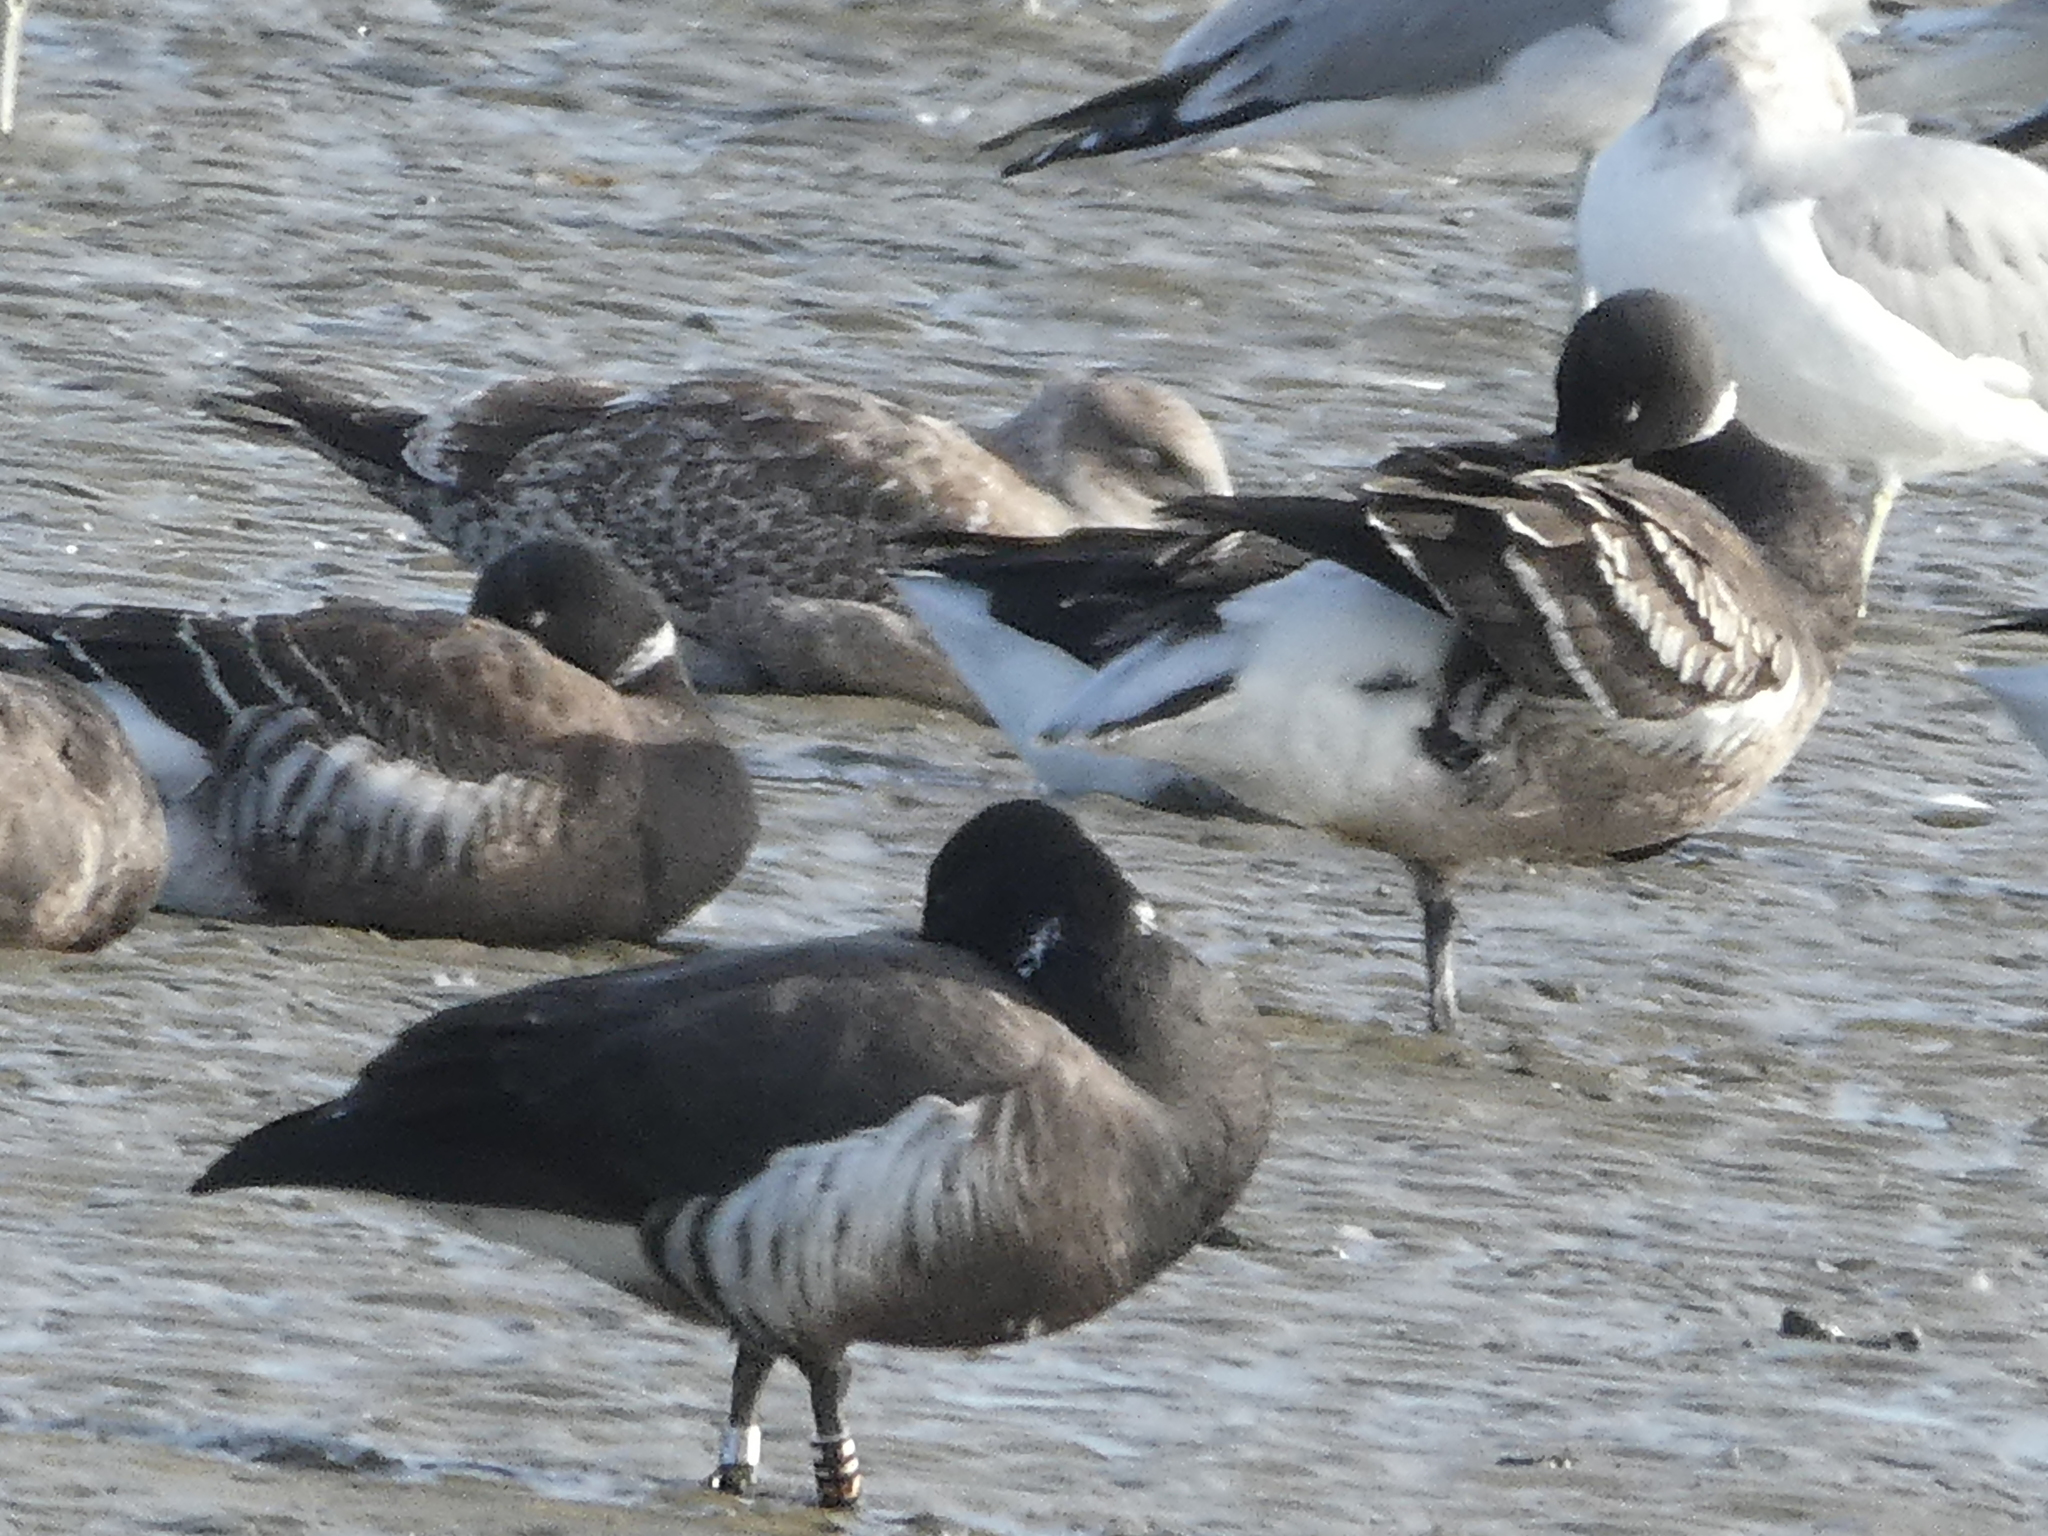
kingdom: Animalia
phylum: Chordata
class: Aves
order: Anseriformes
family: Anatidae
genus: Branta
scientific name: Branta bernicla
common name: Brant goose
